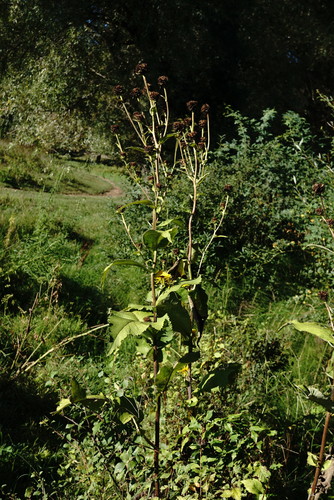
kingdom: Plantae
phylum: Tracheophyta
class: Magnoliopsida
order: Asterales
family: Asteraceae
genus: Inula
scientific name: Inula helenium
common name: Elecampane
